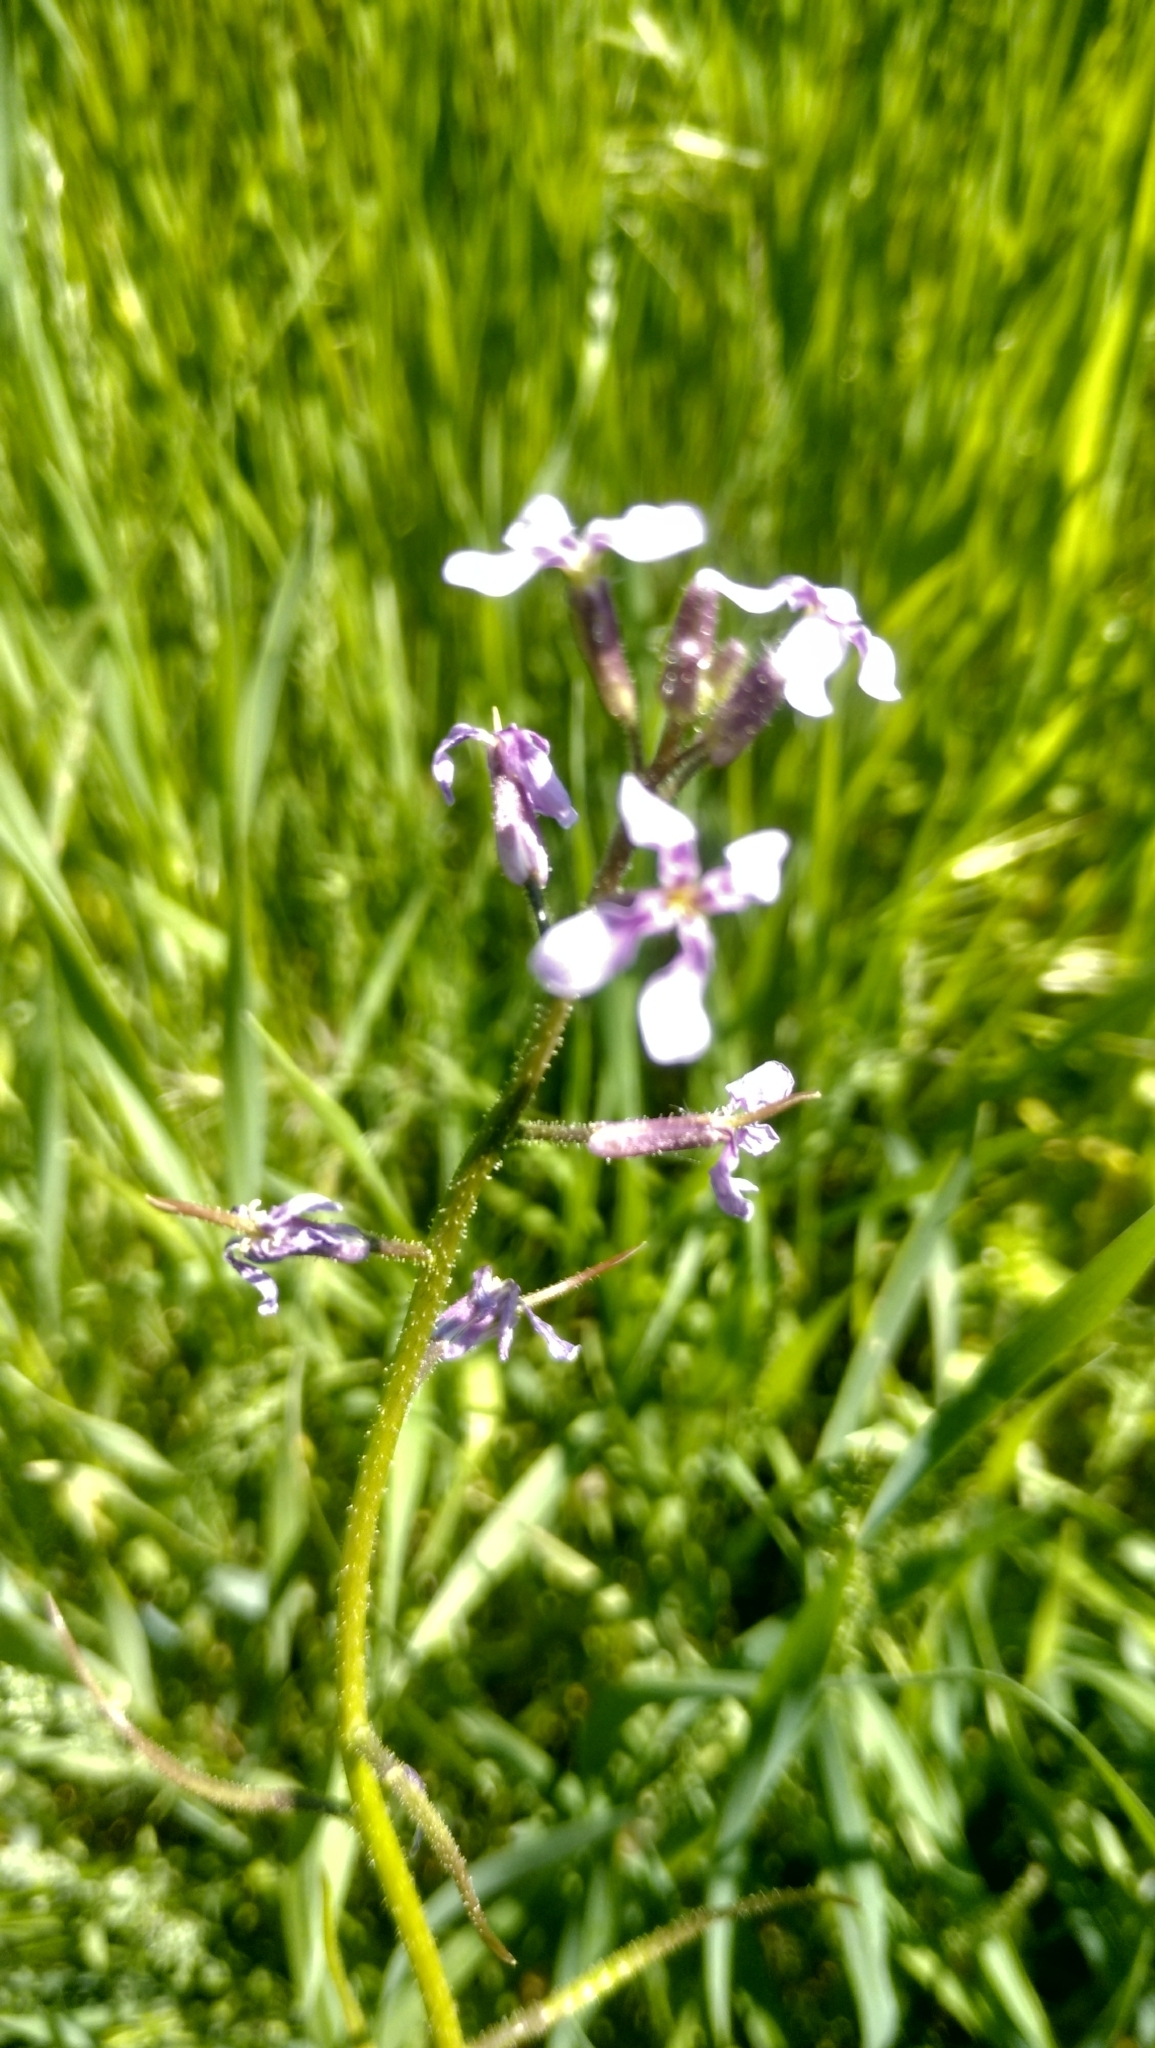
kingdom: Plantae
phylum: Tracheophyta
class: Magnoliopsida
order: Brassicales
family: Brassicaceae
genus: Chorispora
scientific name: Chorispora tenella
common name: Crossflower
